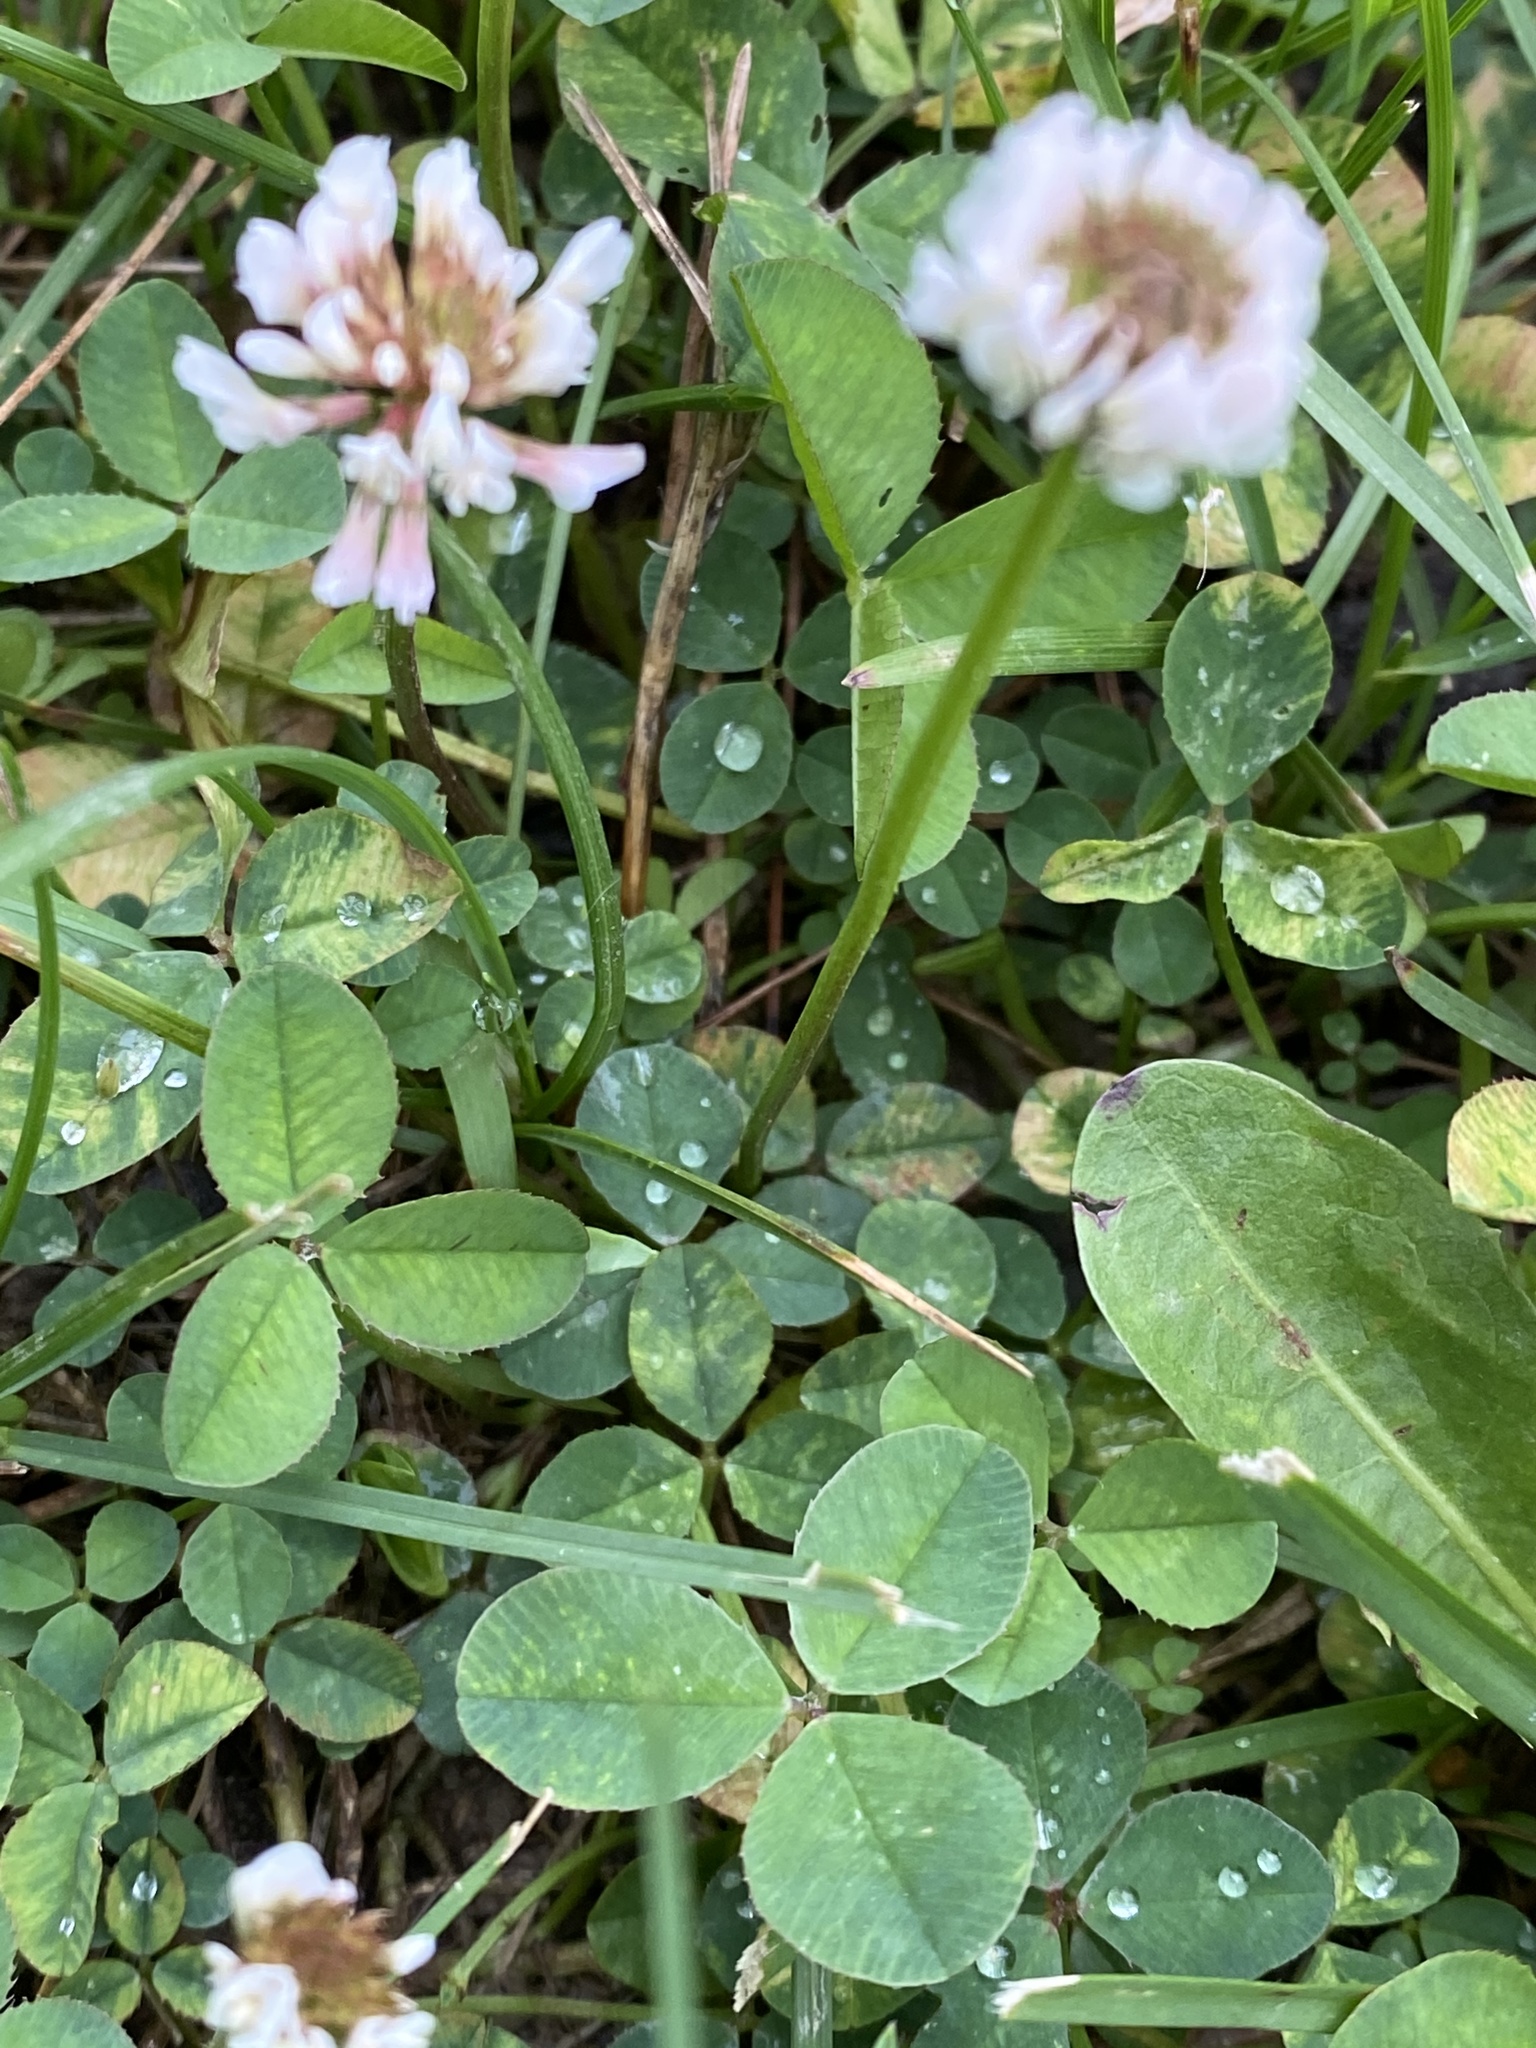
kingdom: Plantae
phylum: Tracheophyta
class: Magnoliopsida
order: Fabales
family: Fabaceae
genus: Trifolium
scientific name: Trifolium repens
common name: White clover
